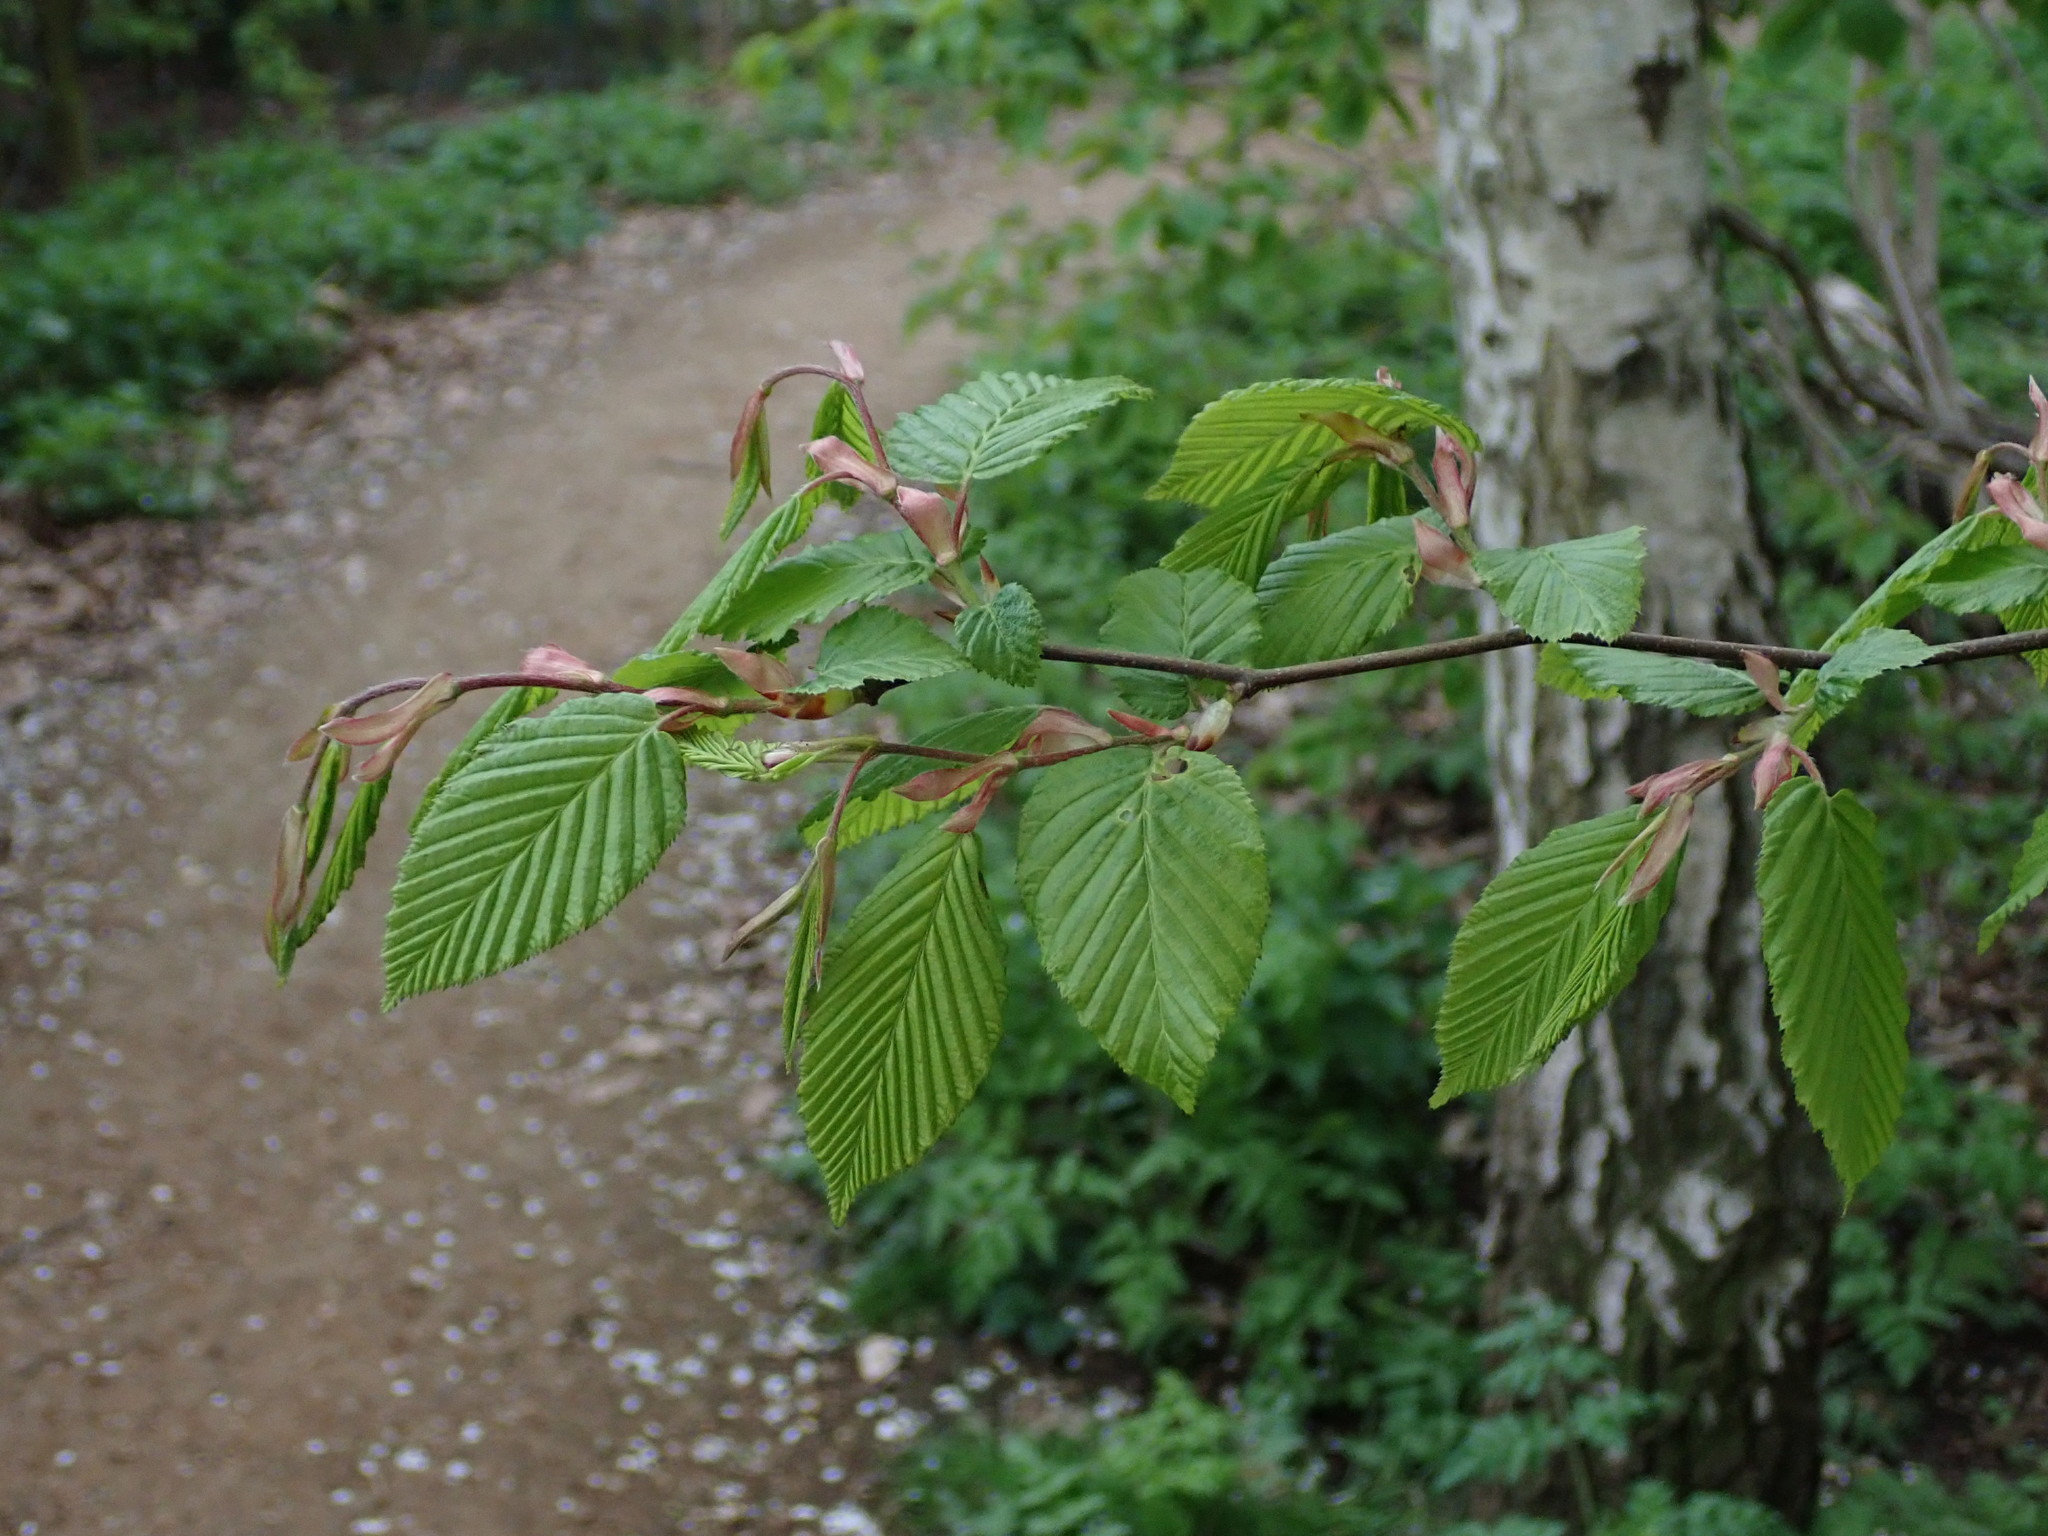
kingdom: Plantae
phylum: Tracheophyta
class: Magnoliopsida
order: Fagales
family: Betulaceae
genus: Carpinus
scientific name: Carpinus betulus
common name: Hornbeam
